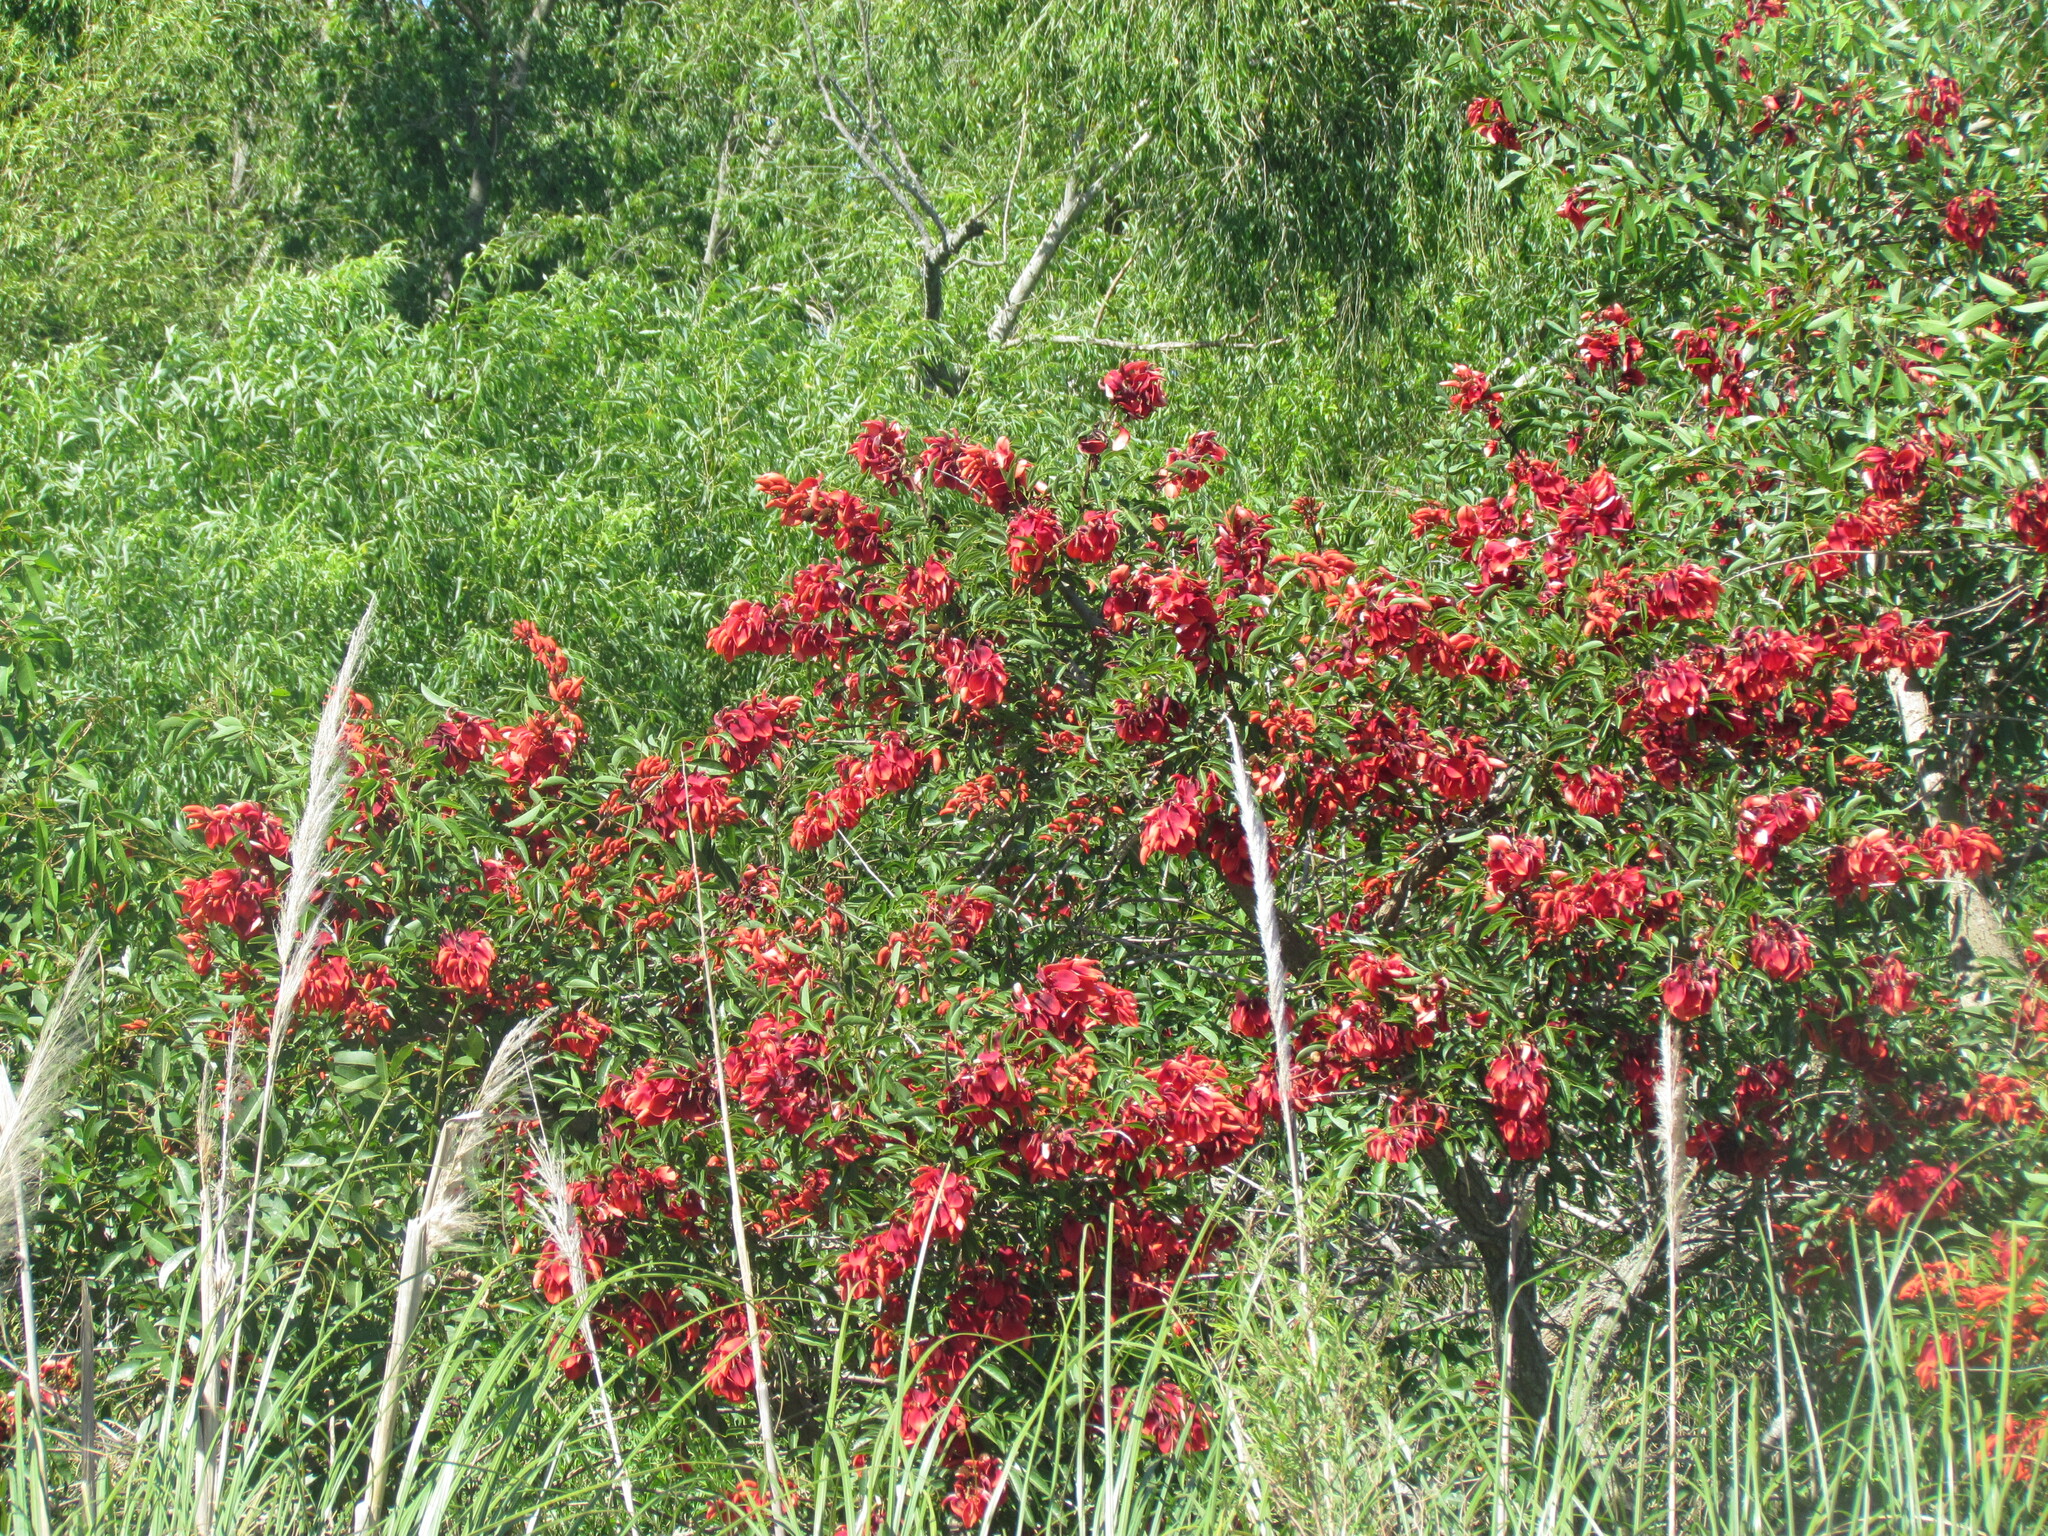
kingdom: Plantae
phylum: Tracheophyta
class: Magnoliopsida
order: Fabales
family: Fabaceae
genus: Erythrina
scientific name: Erythrina crista-galli
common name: Cockspur coral tree
